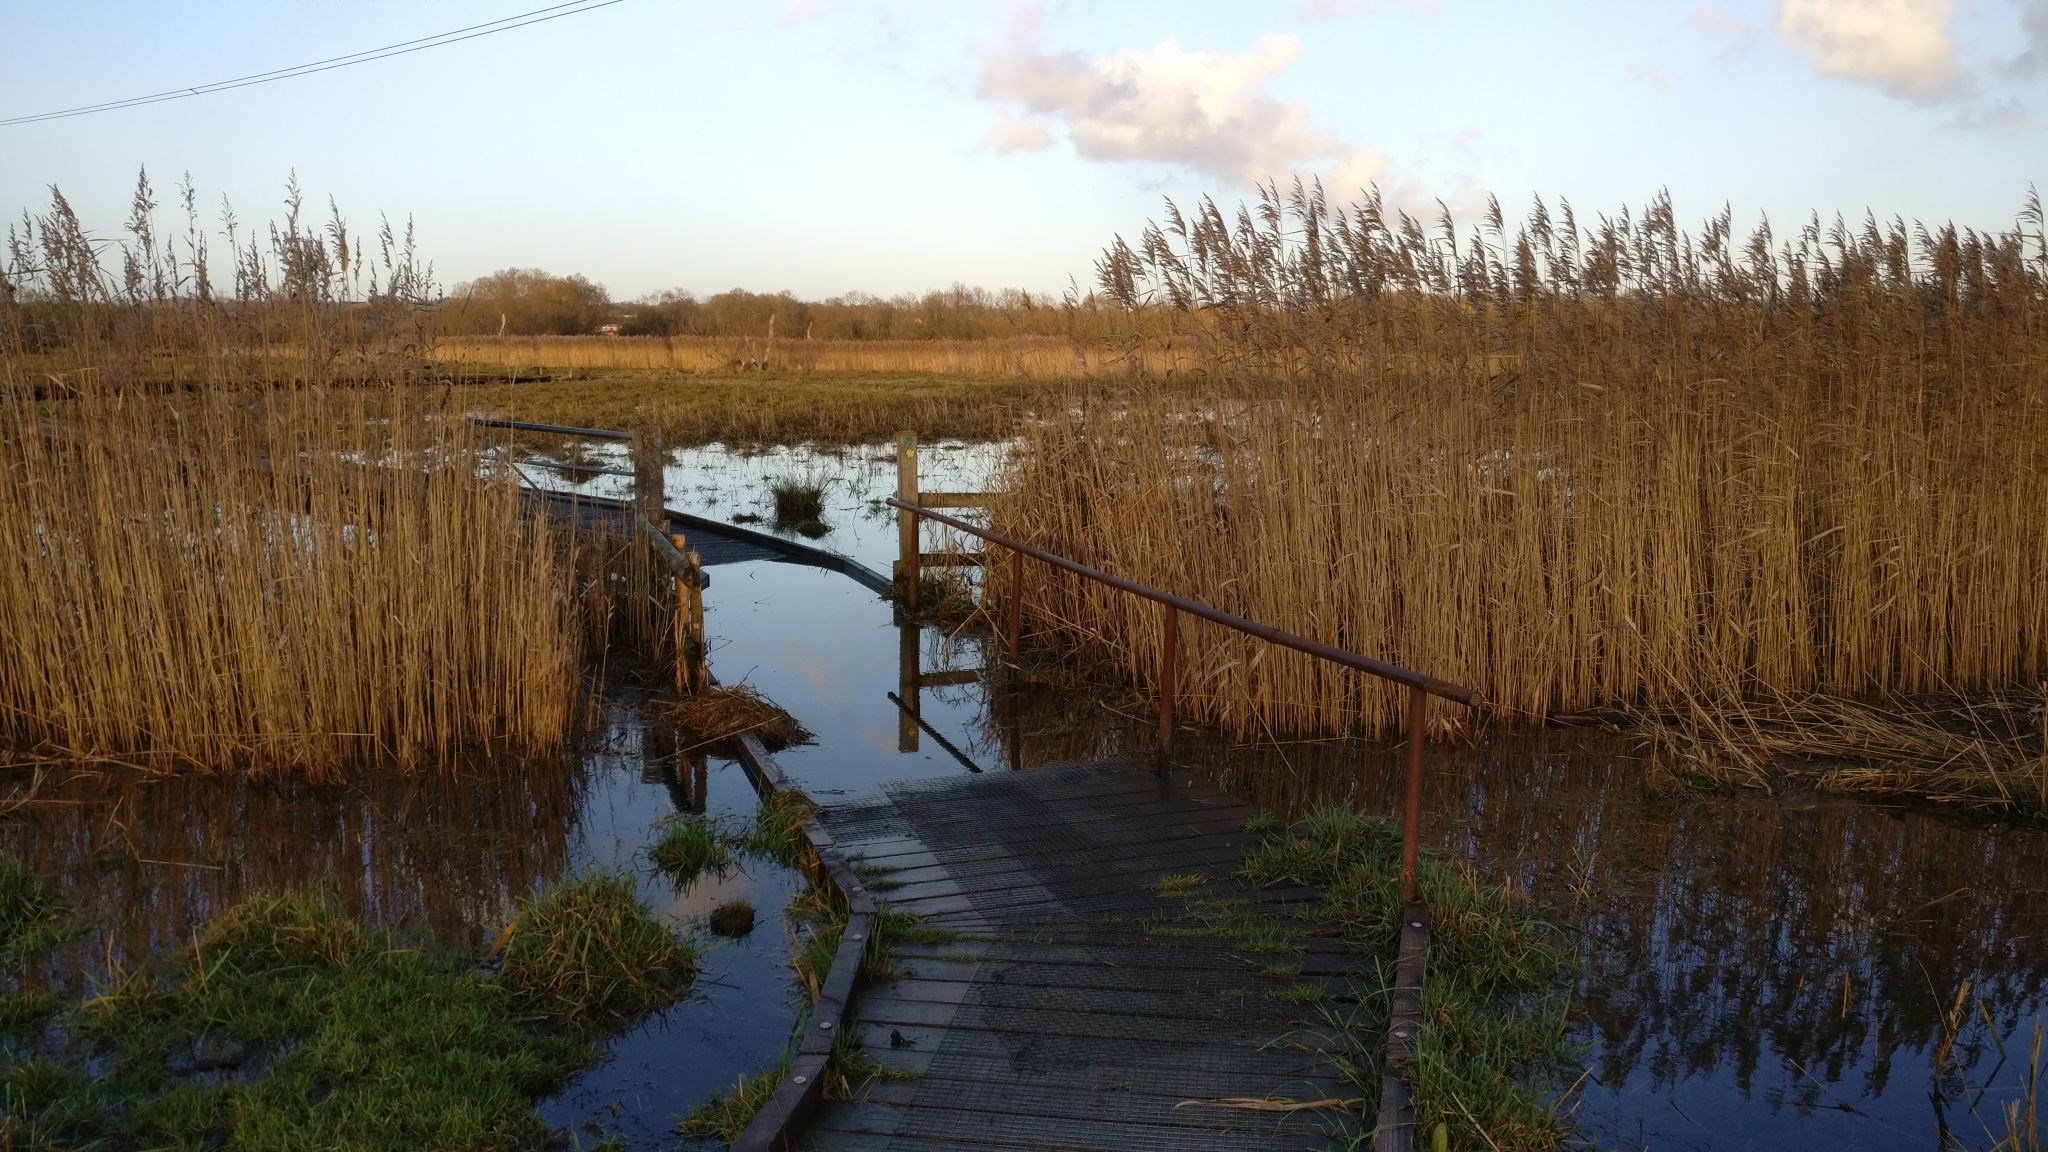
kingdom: Plantae
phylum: Tracheophyta
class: Liliopsida
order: Poales
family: Poaceae
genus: Phragmites
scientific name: Phragmites australis
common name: Common reed
